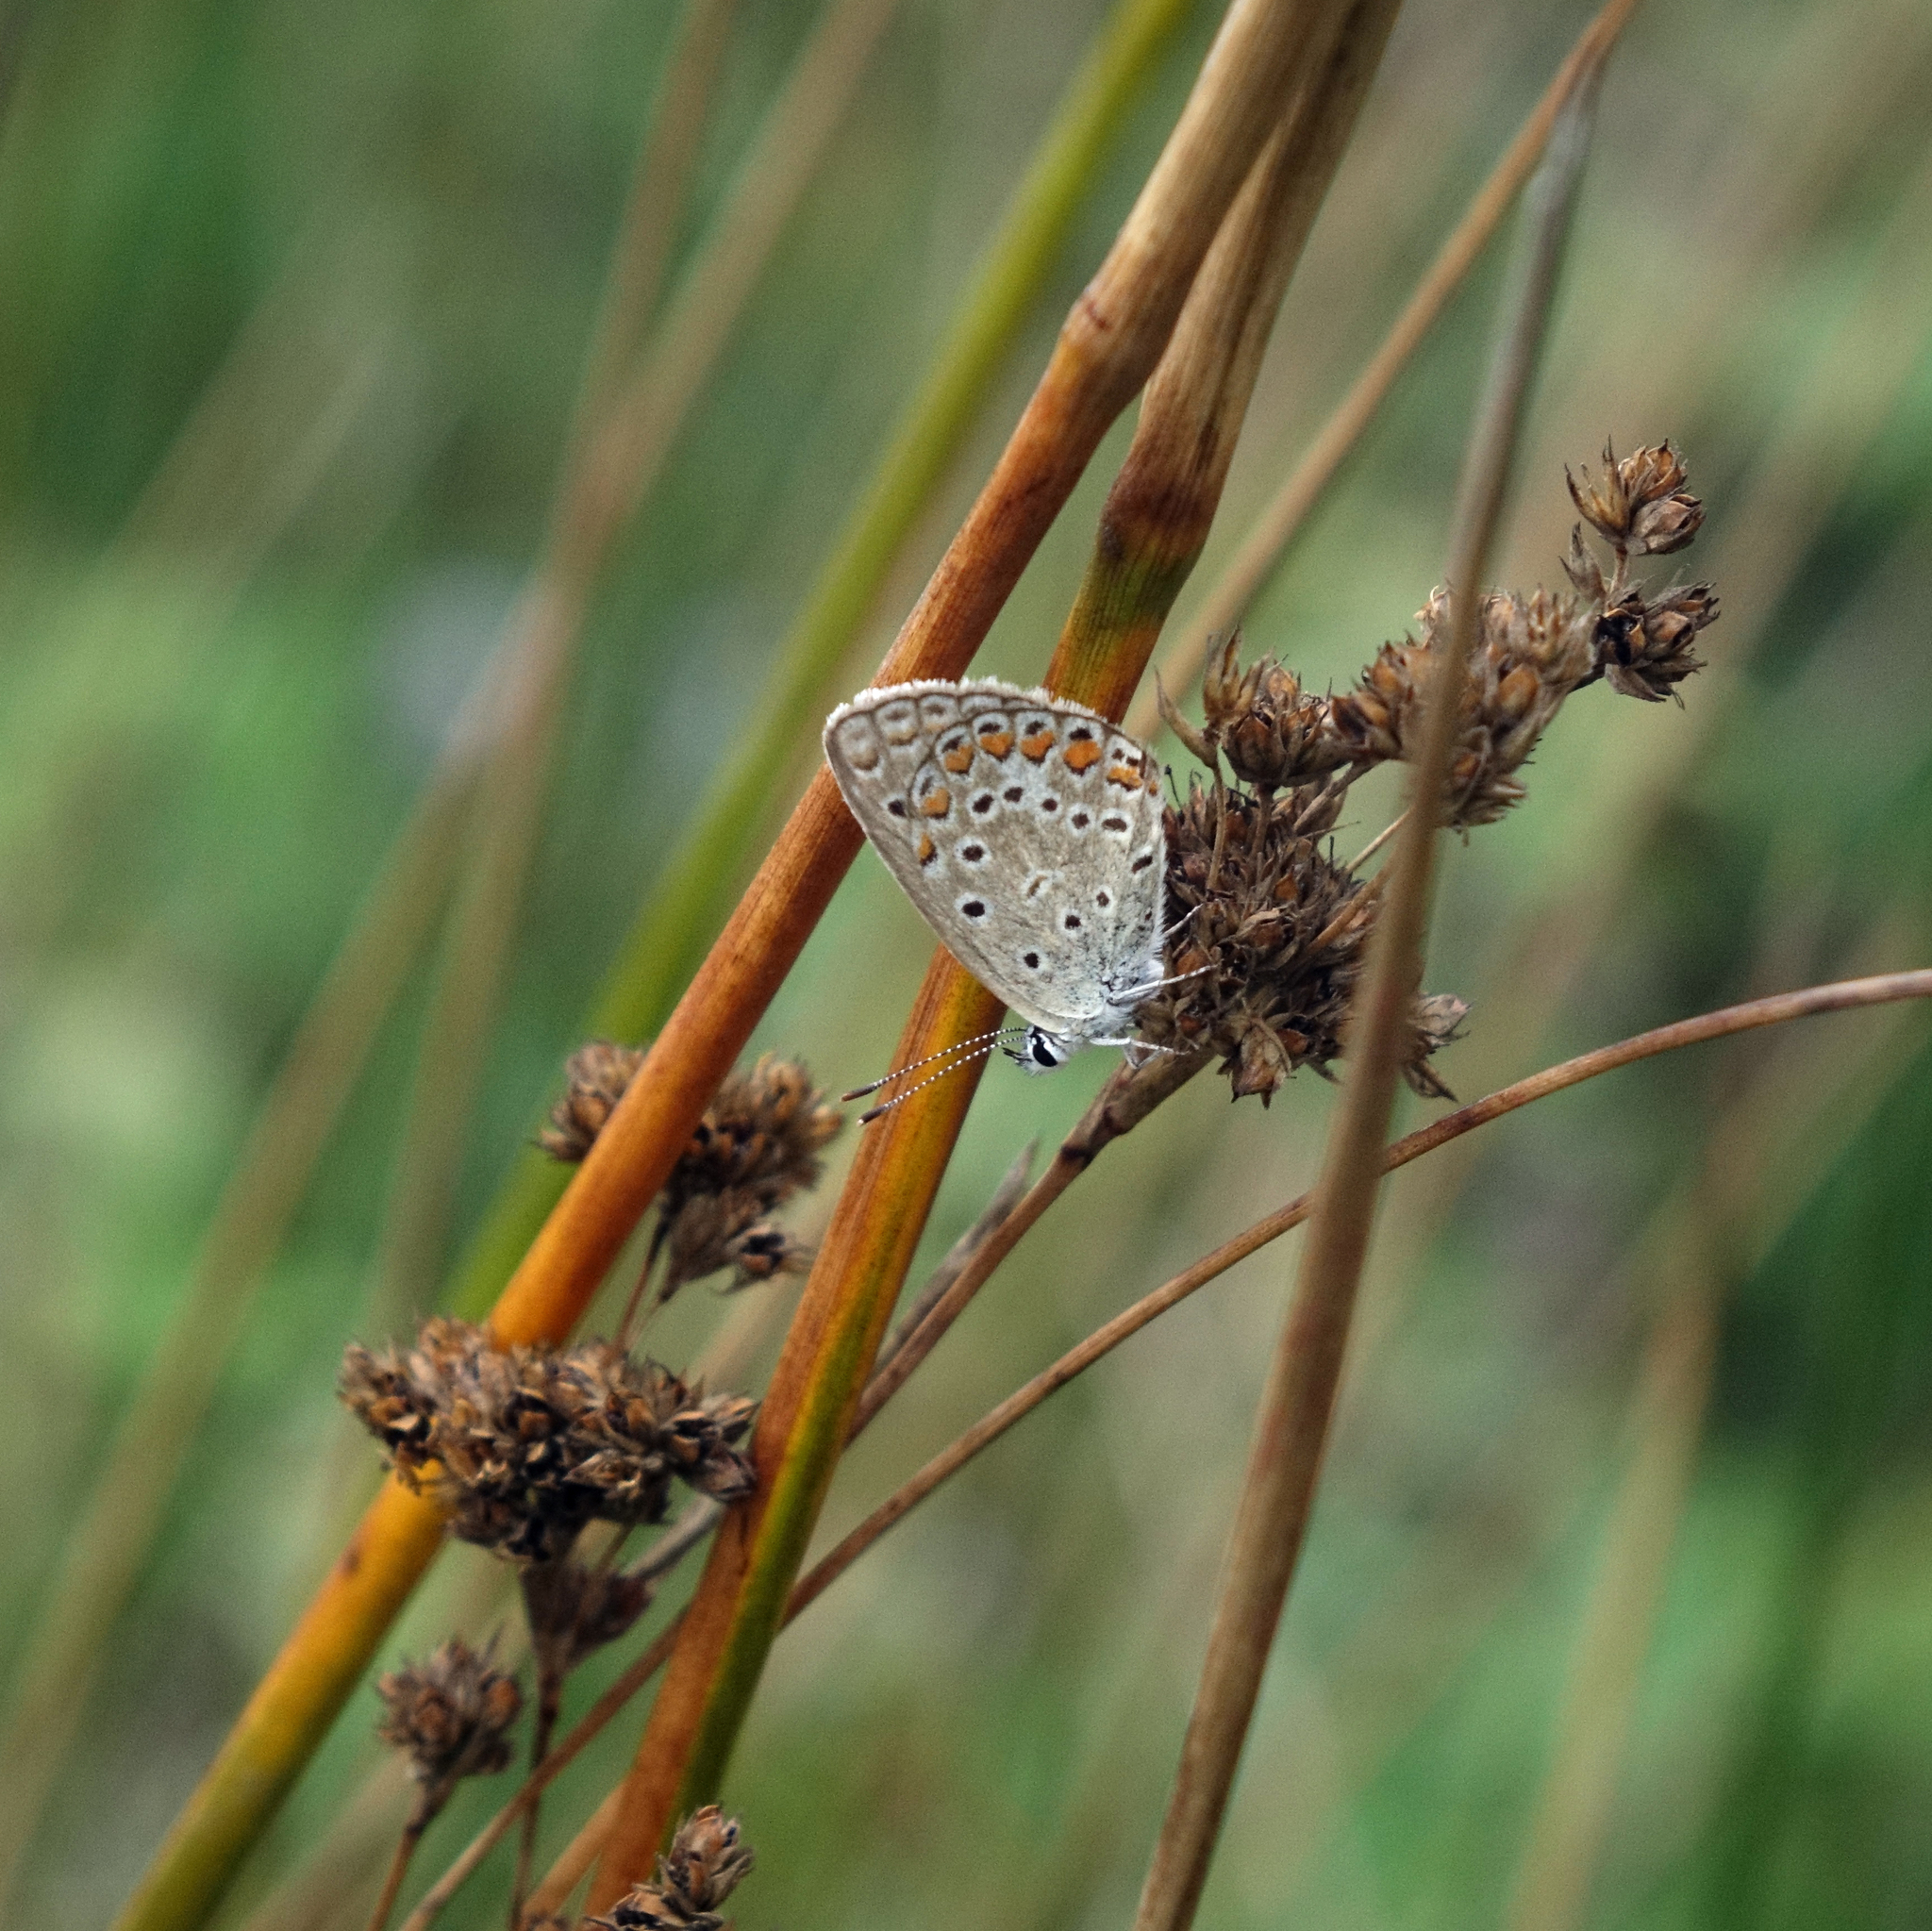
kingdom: Animalia
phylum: Arthropoda
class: Insecta
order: Lepidoptera
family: Lycaenidae
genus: Polyommatus
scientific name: Polyommatus icarus
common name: Common blue
